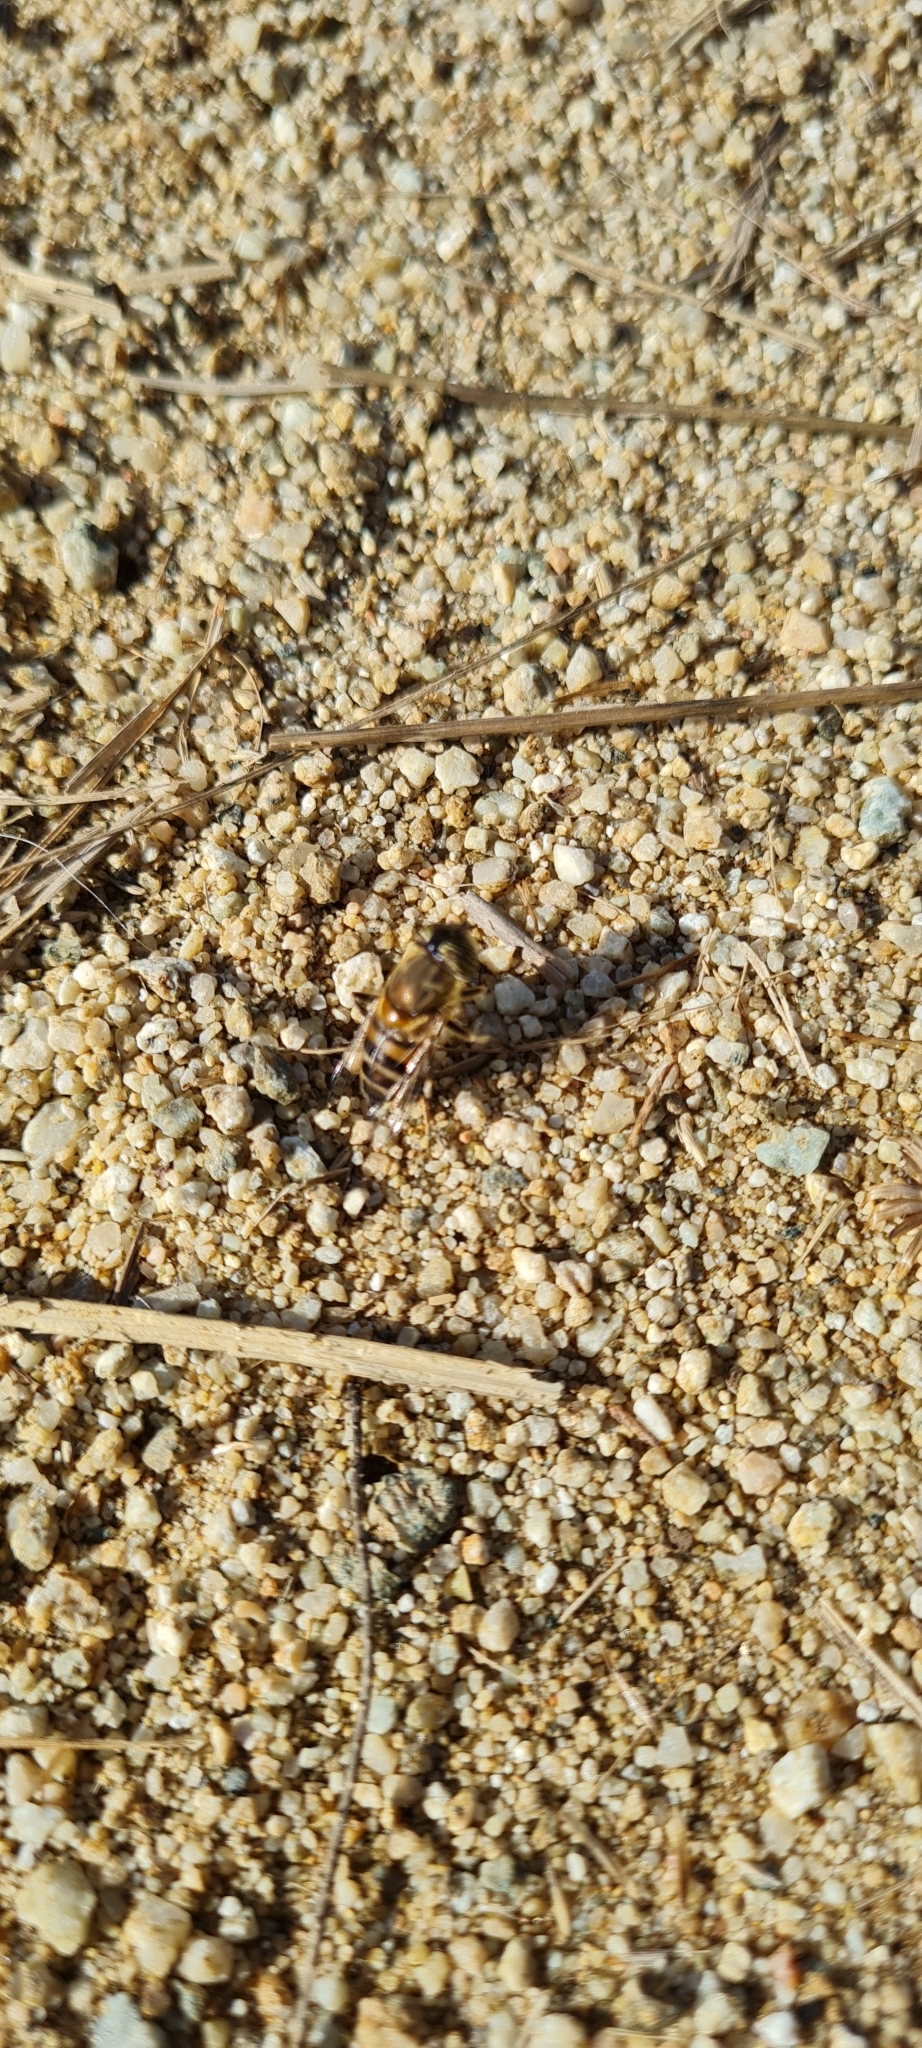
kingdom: Animalia
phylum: Arthropoda
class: Insecta
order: Diptera
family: Syrphidae
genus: Eristalinus
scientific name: Eristalinus taeniops
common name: Syrphid fly
